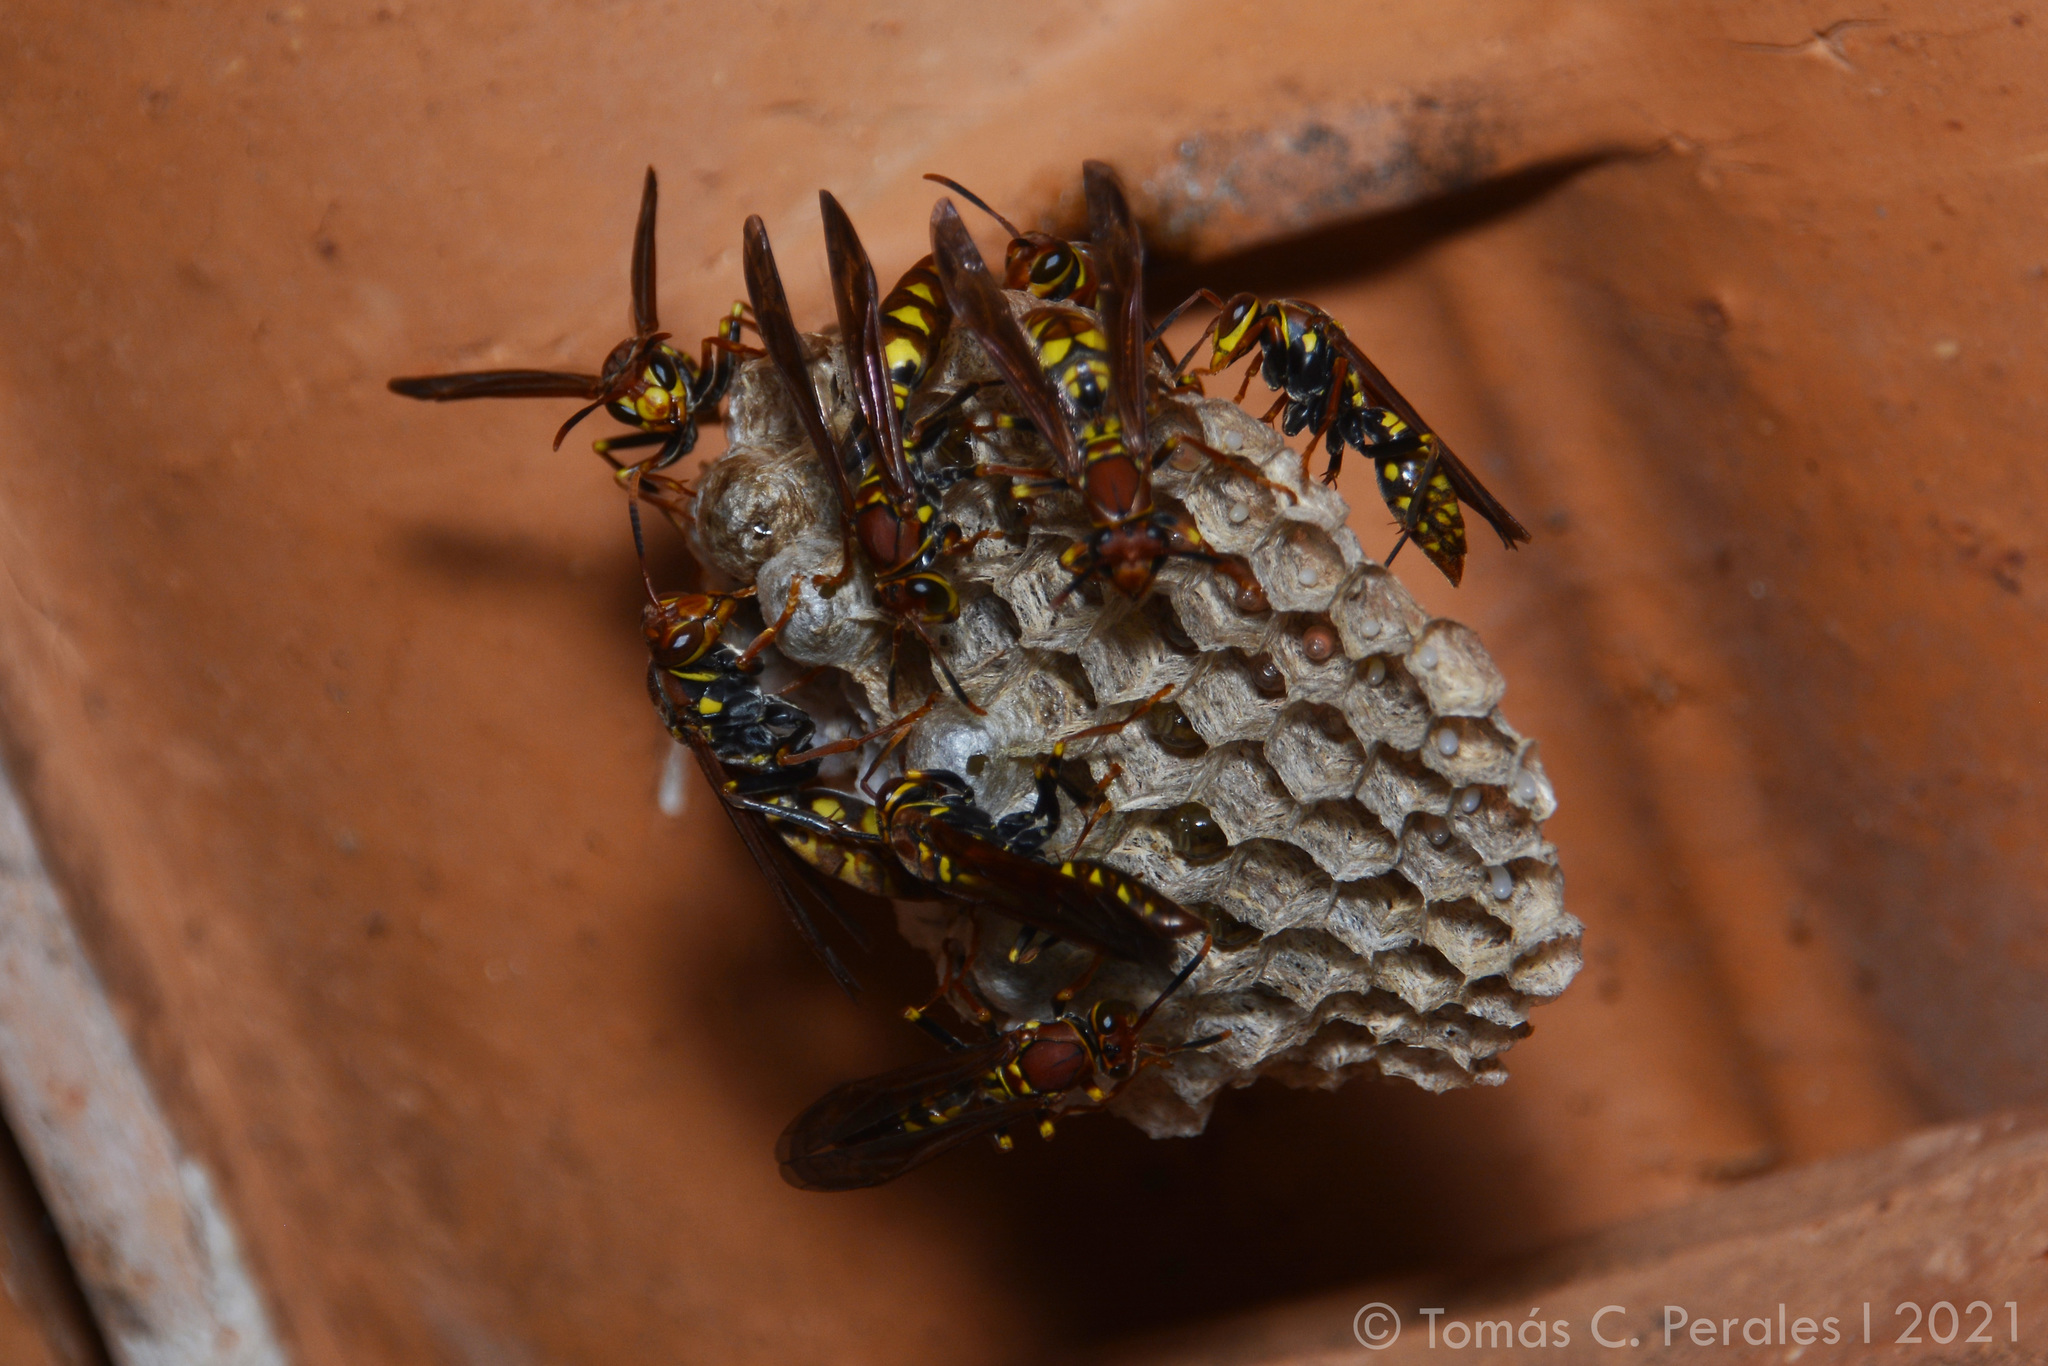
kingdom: Animalia
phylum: Arthropoda
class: Insecta
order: Hymenoptera
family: Eumenidae
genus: Polistes
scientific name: Polistes versicolor
